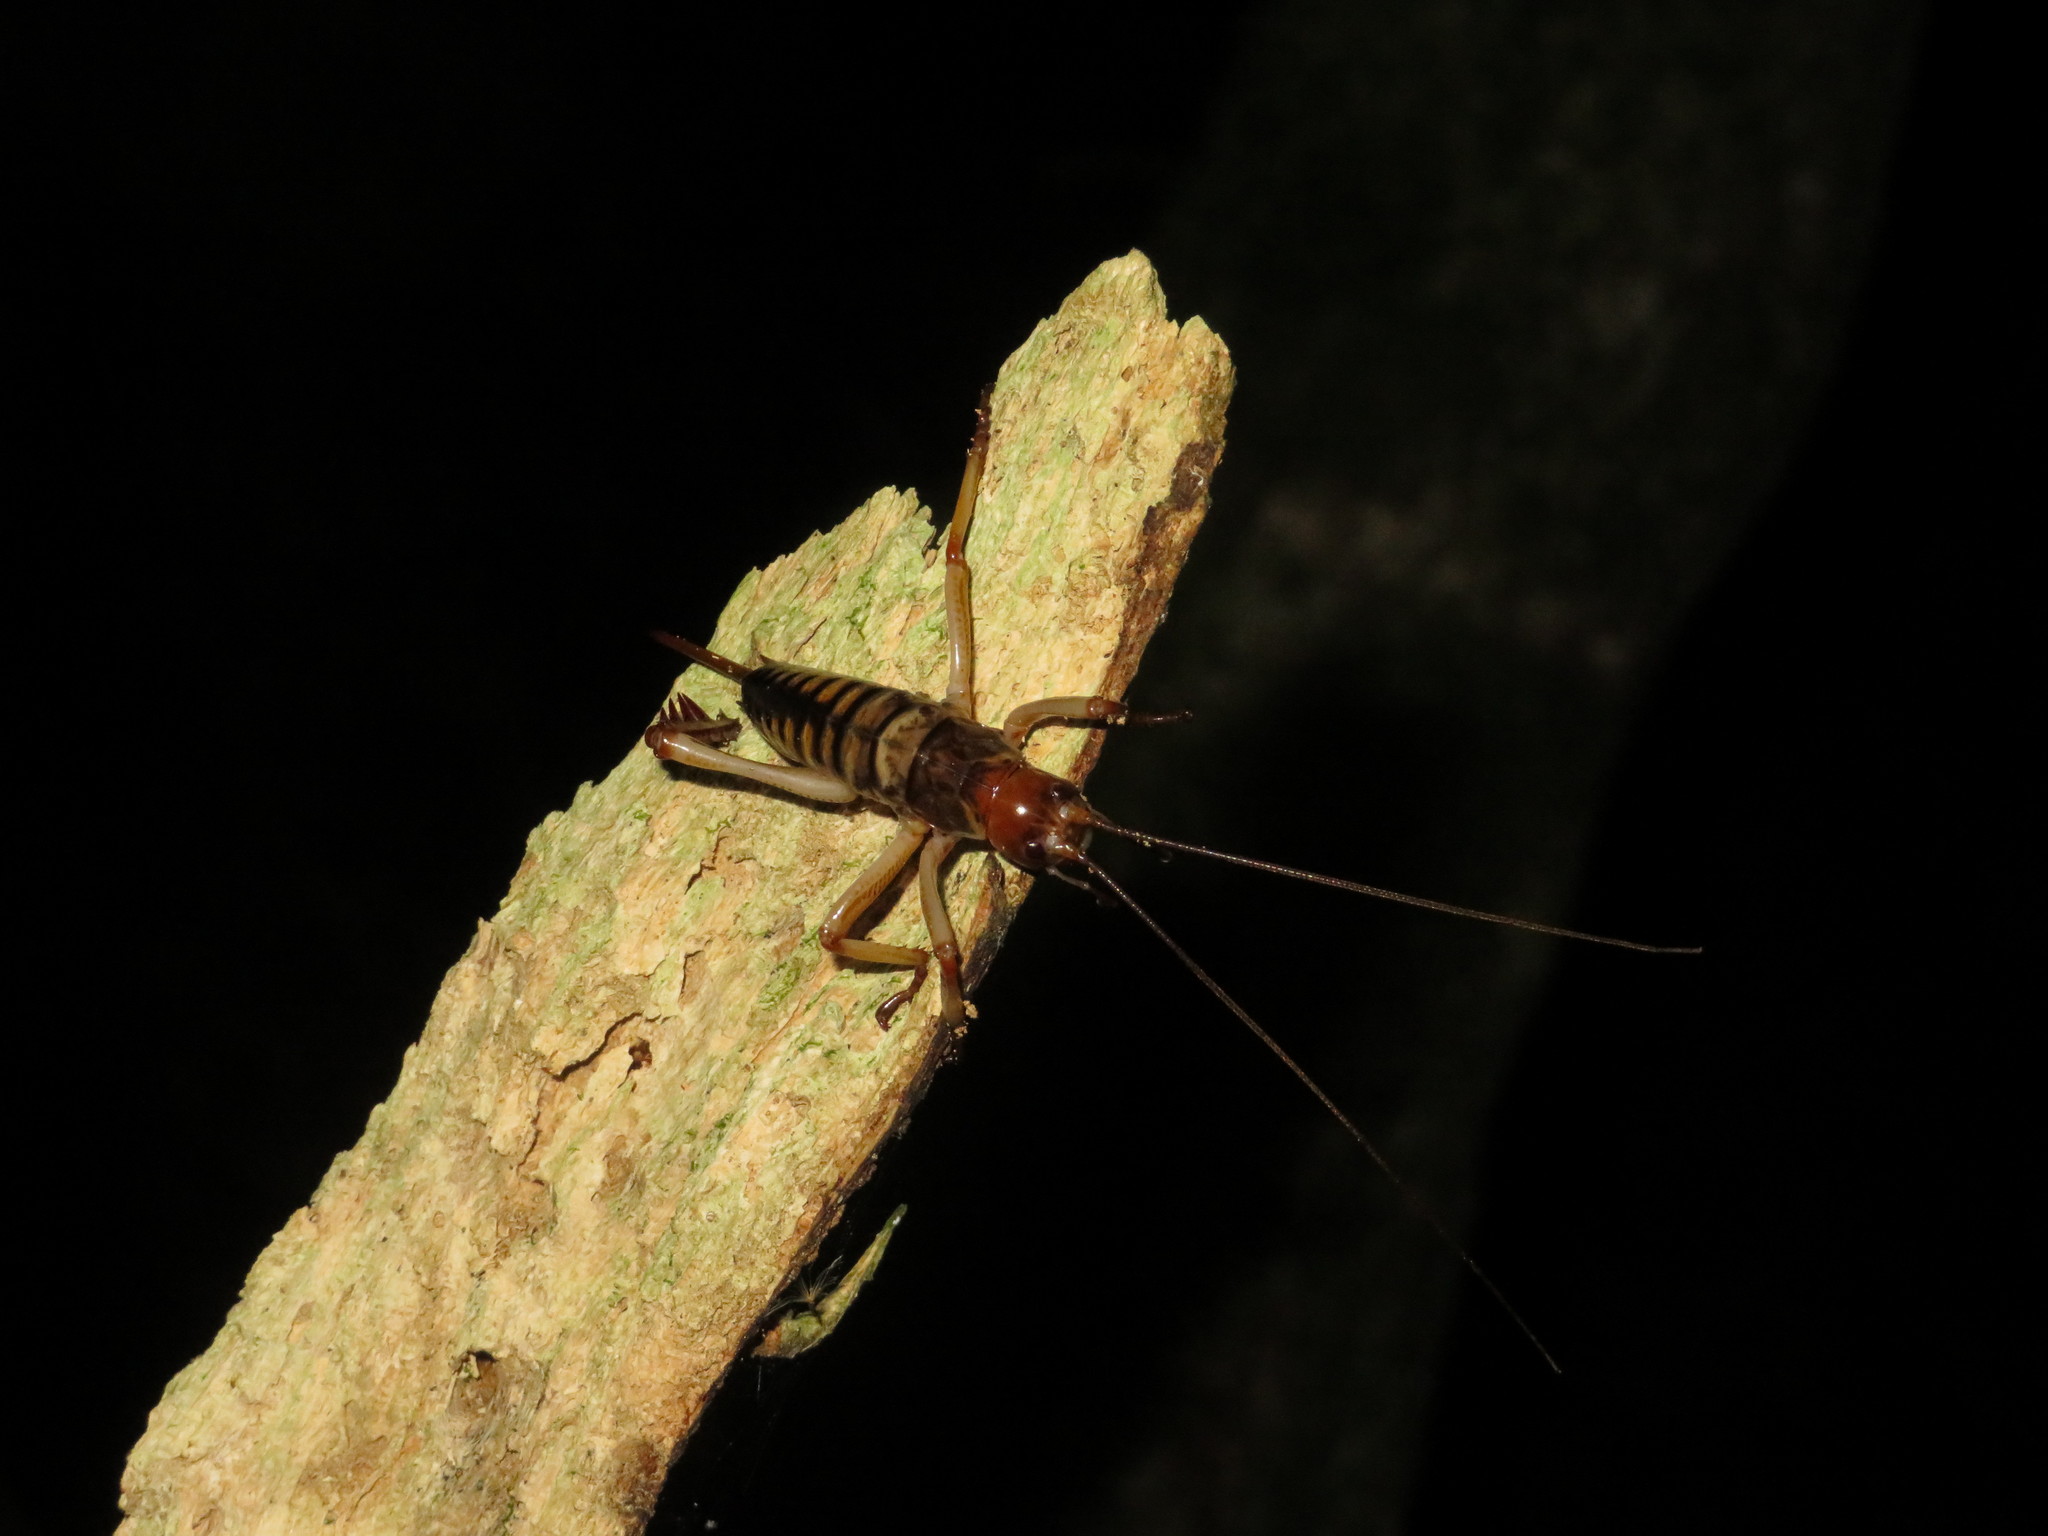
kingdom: Animalia
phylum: Arthropoda
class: Insecta
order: Orthoptera
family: Anostostomatidae
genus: Hemideina
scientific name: Hemideina crassidens
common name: Wellington tree weta
